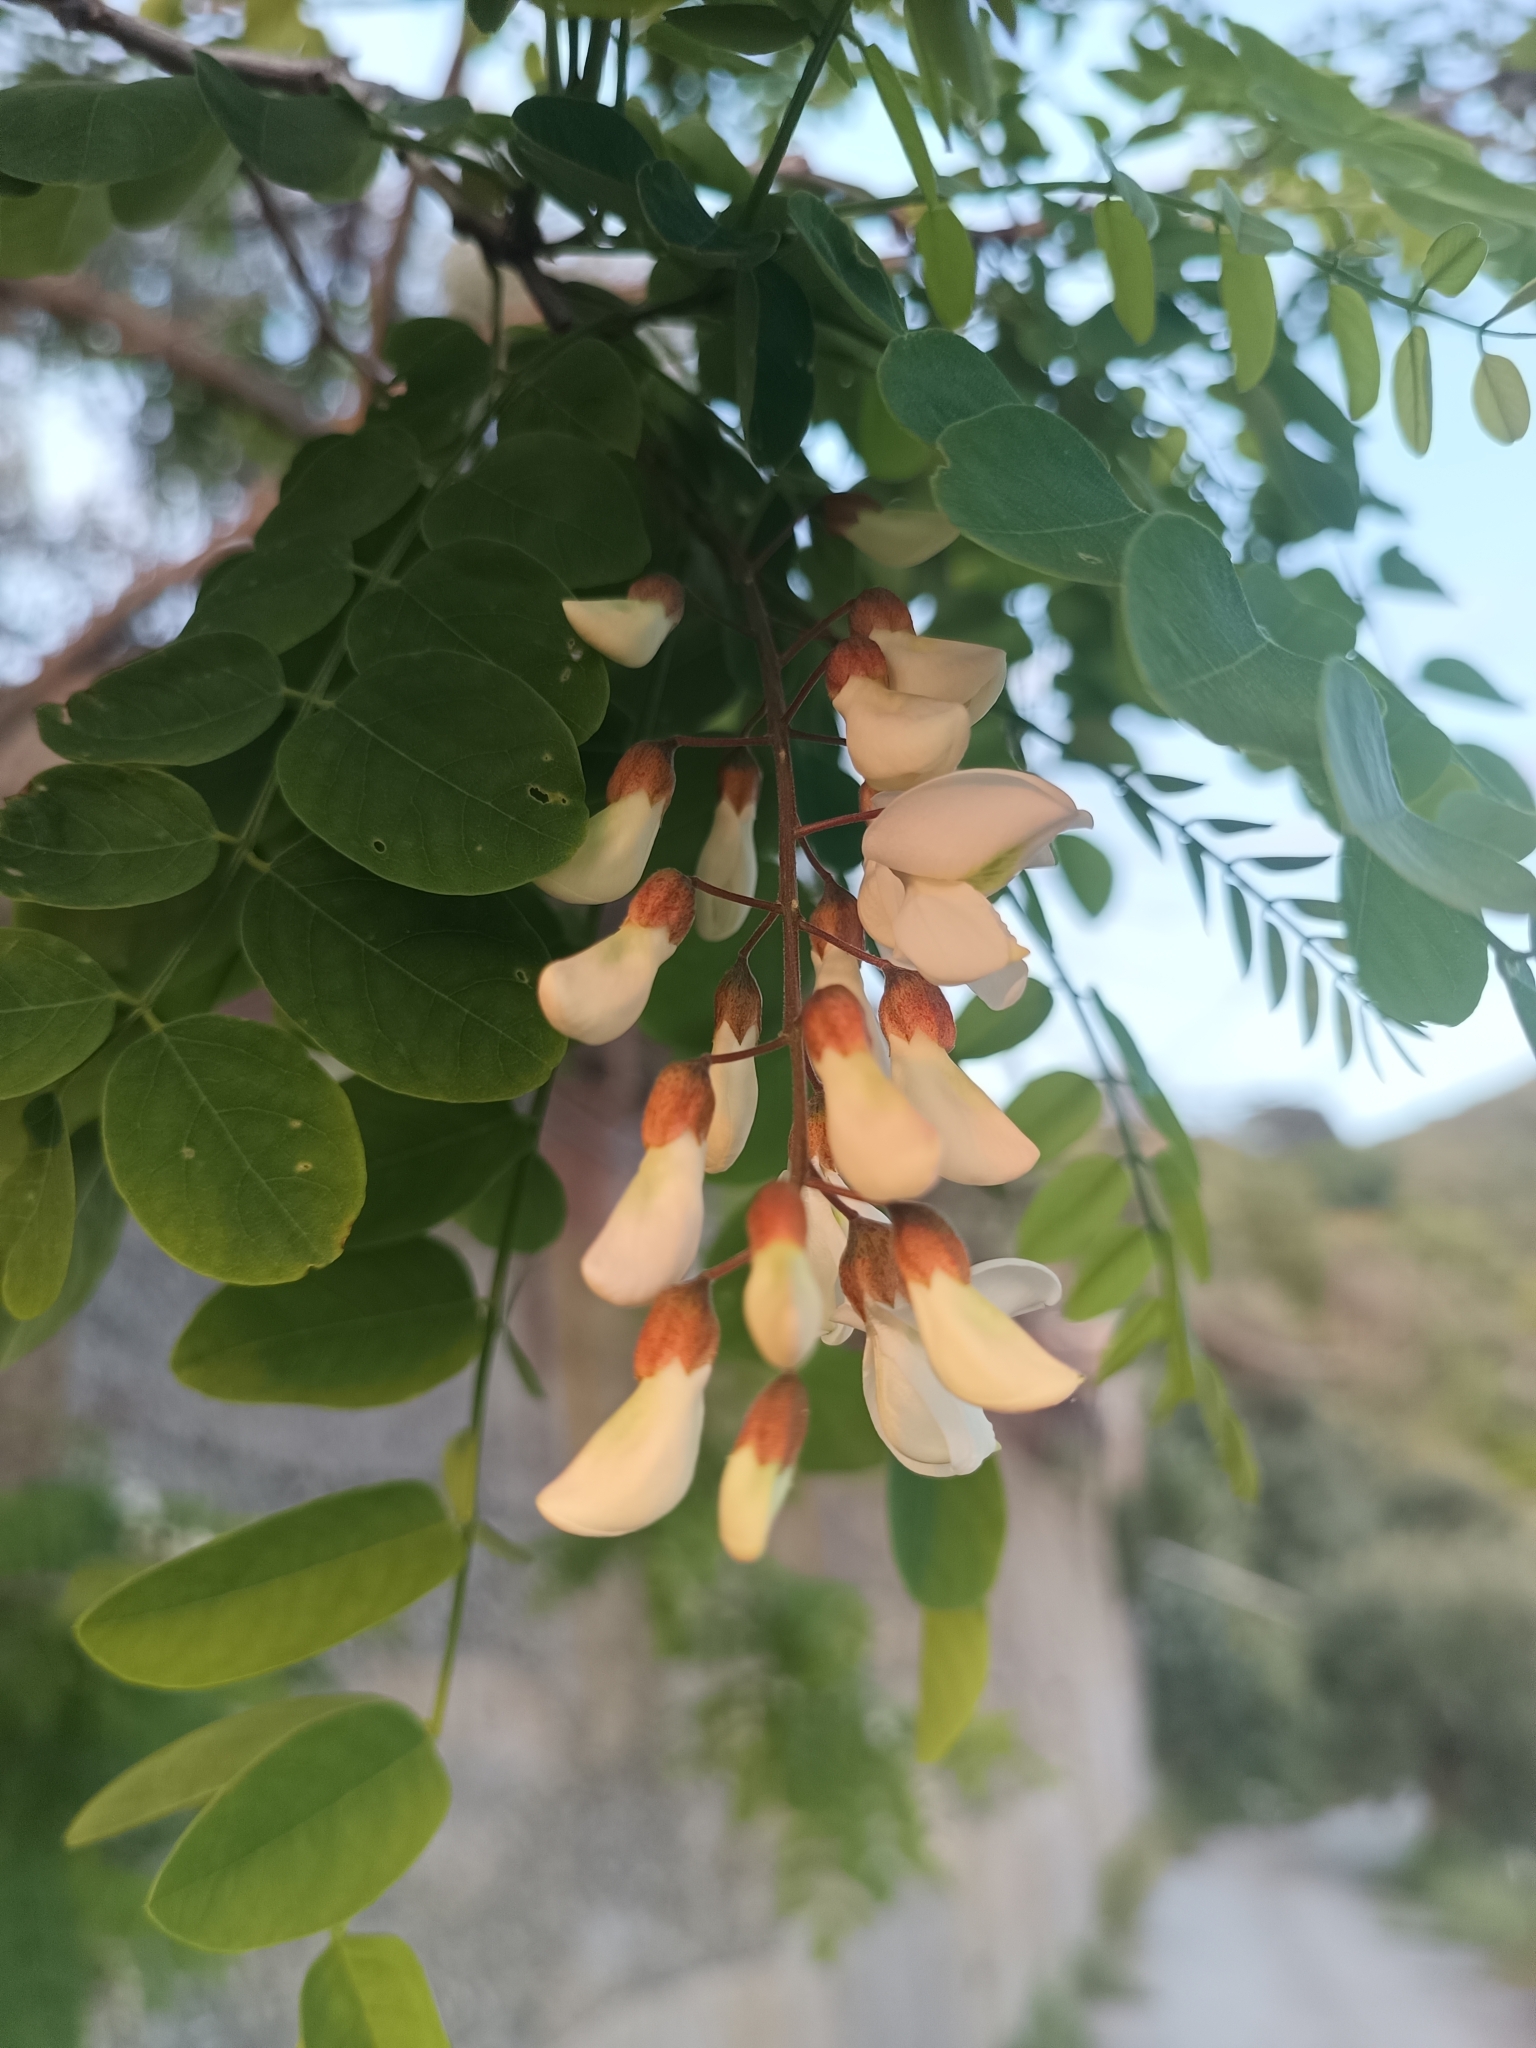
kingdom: Plantae
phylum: Tracheophyta
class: Magnoliopsida
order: Fabales
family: Fabaceae
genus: Robinia
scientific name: Robinia pseudoacacia
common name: Black locust
